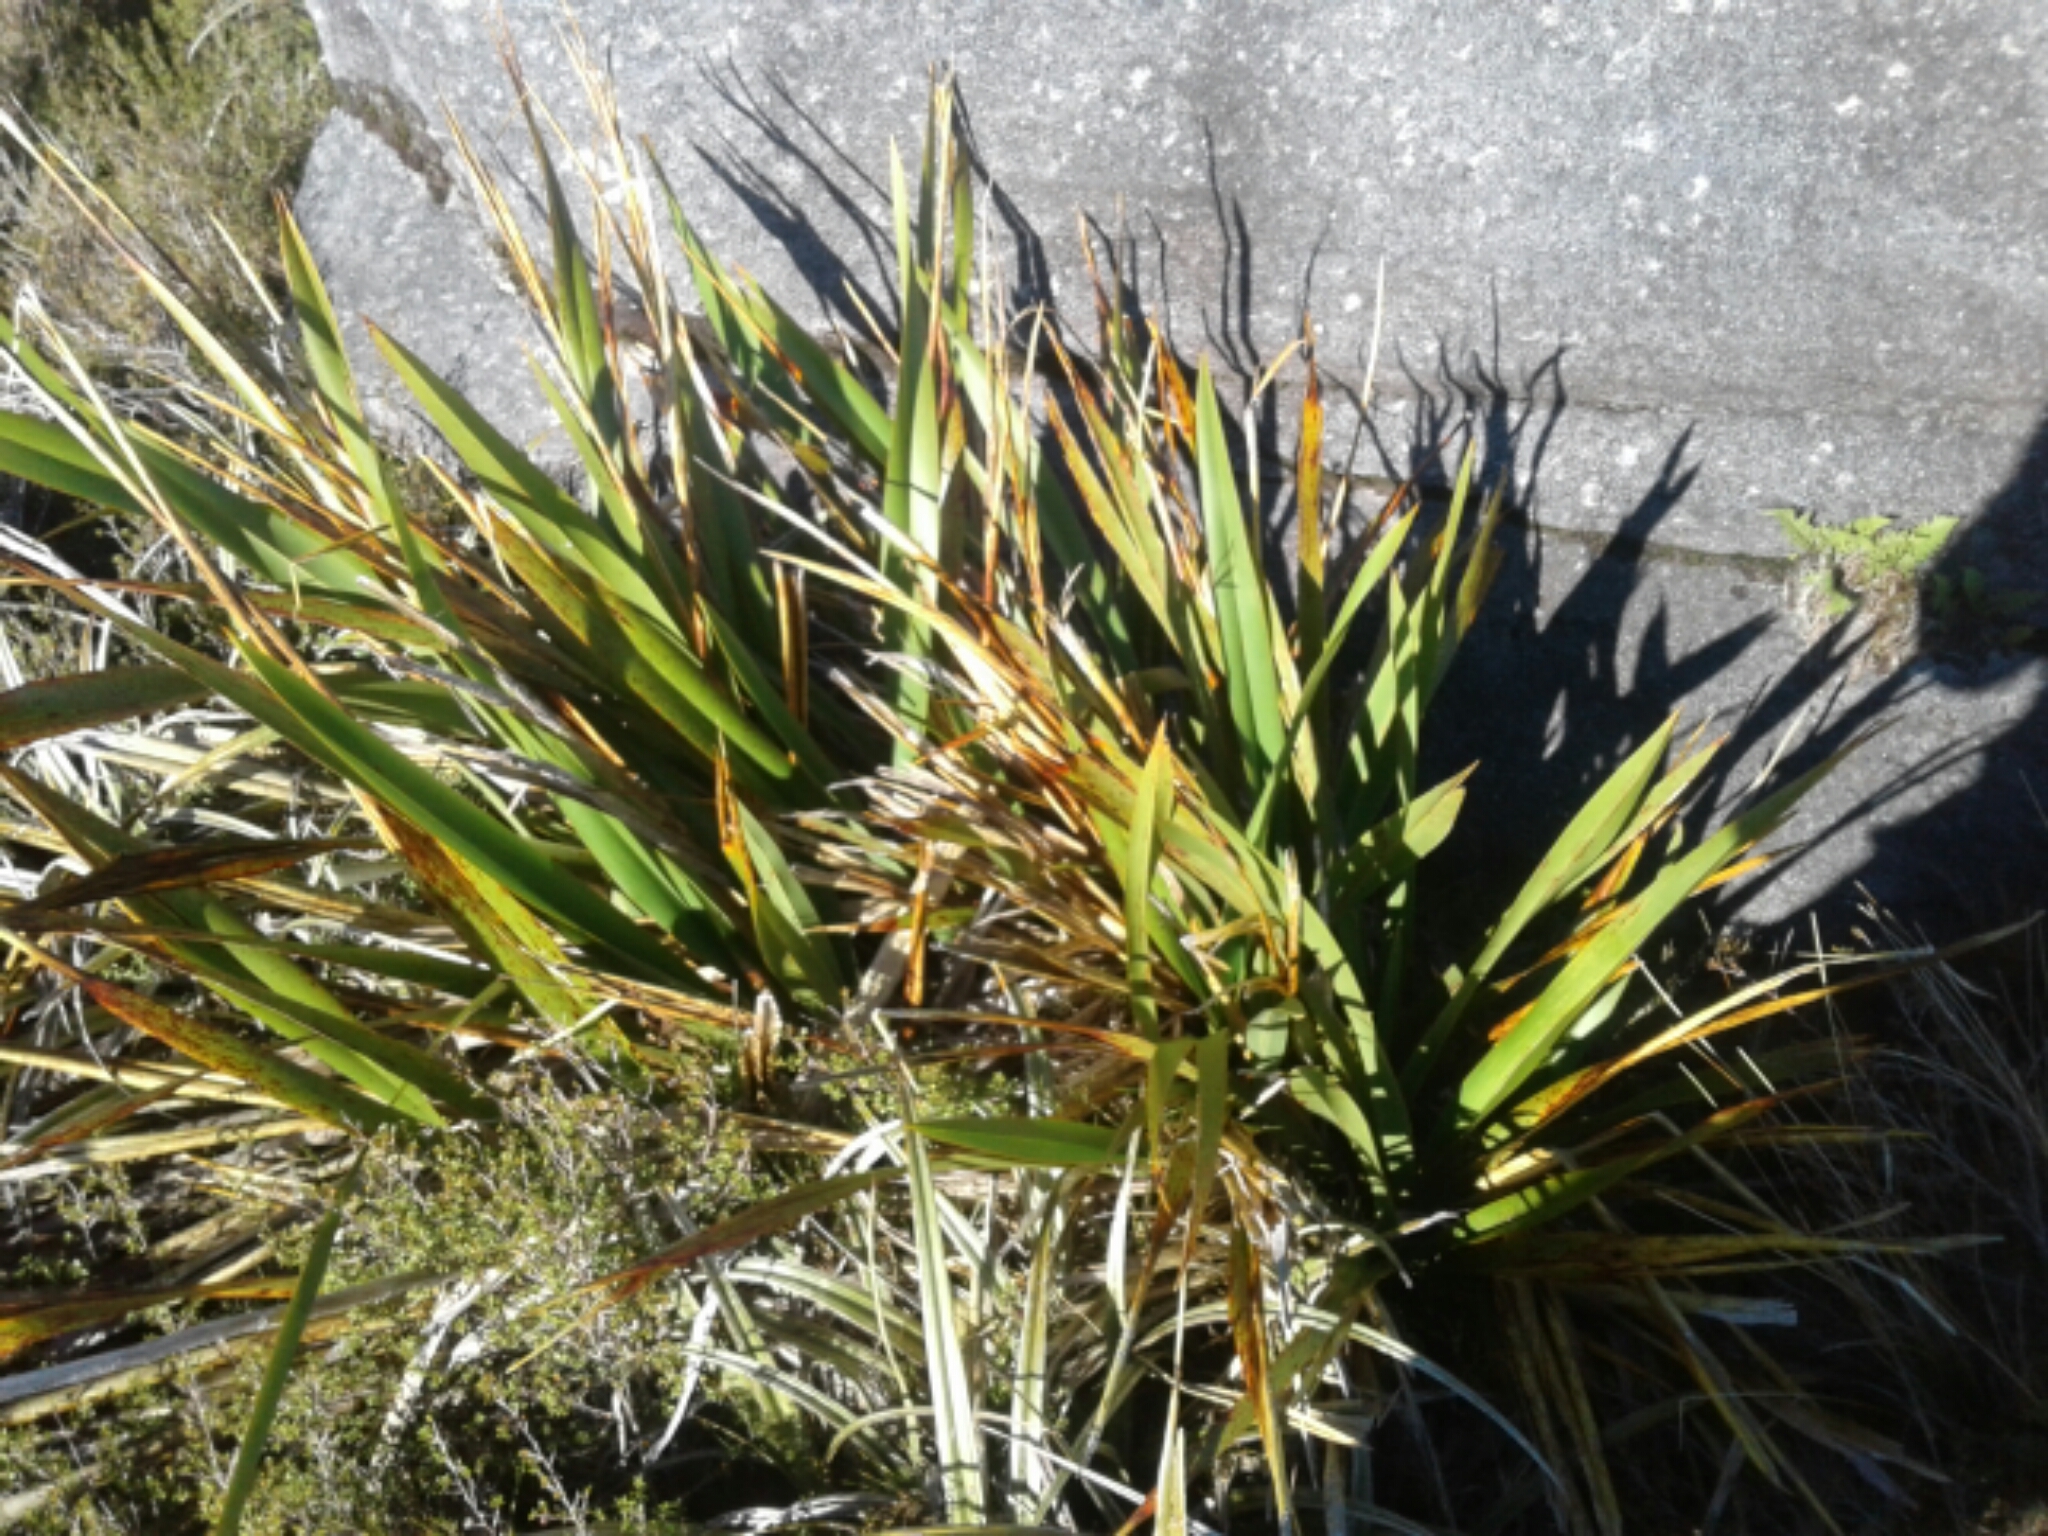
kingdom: Plantae
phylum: Tracheophyta
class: Liliopsida
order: Asparagales
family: Asphodelaceae
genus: Phormium
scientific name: Phormium colensoi
